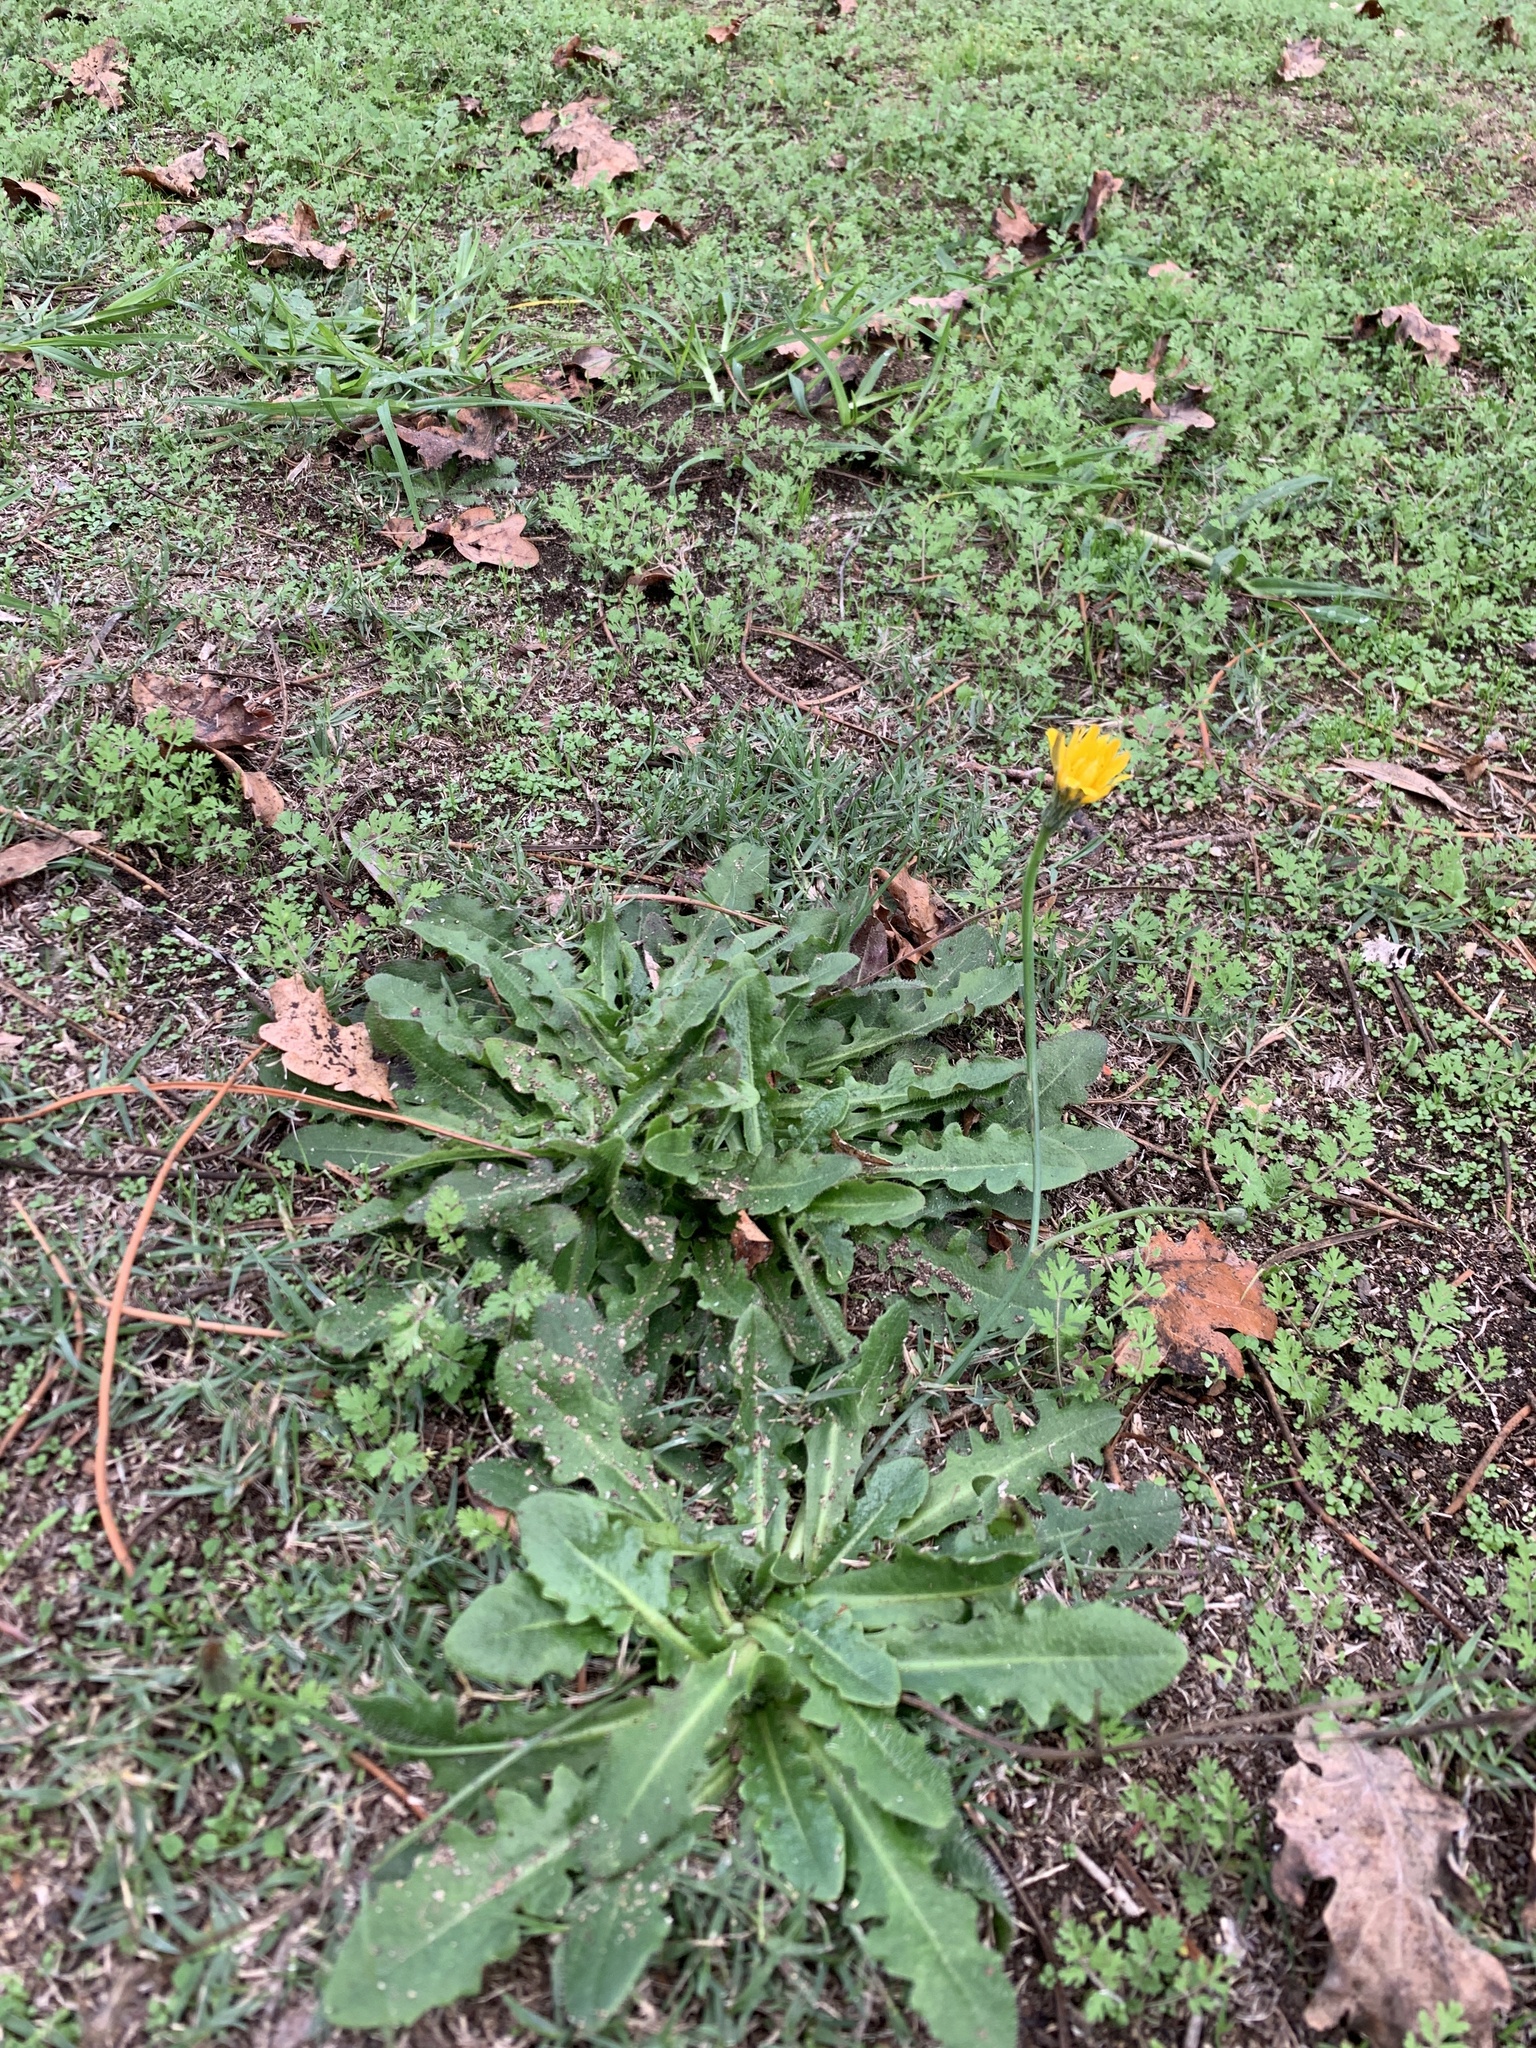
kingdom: Plantae
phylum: Tracheophyta
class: Magnoliopsida
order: Asterales
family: Asteraceae
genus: Hypochaeris
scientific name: Hypochaeris radicata
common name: Flatweed
